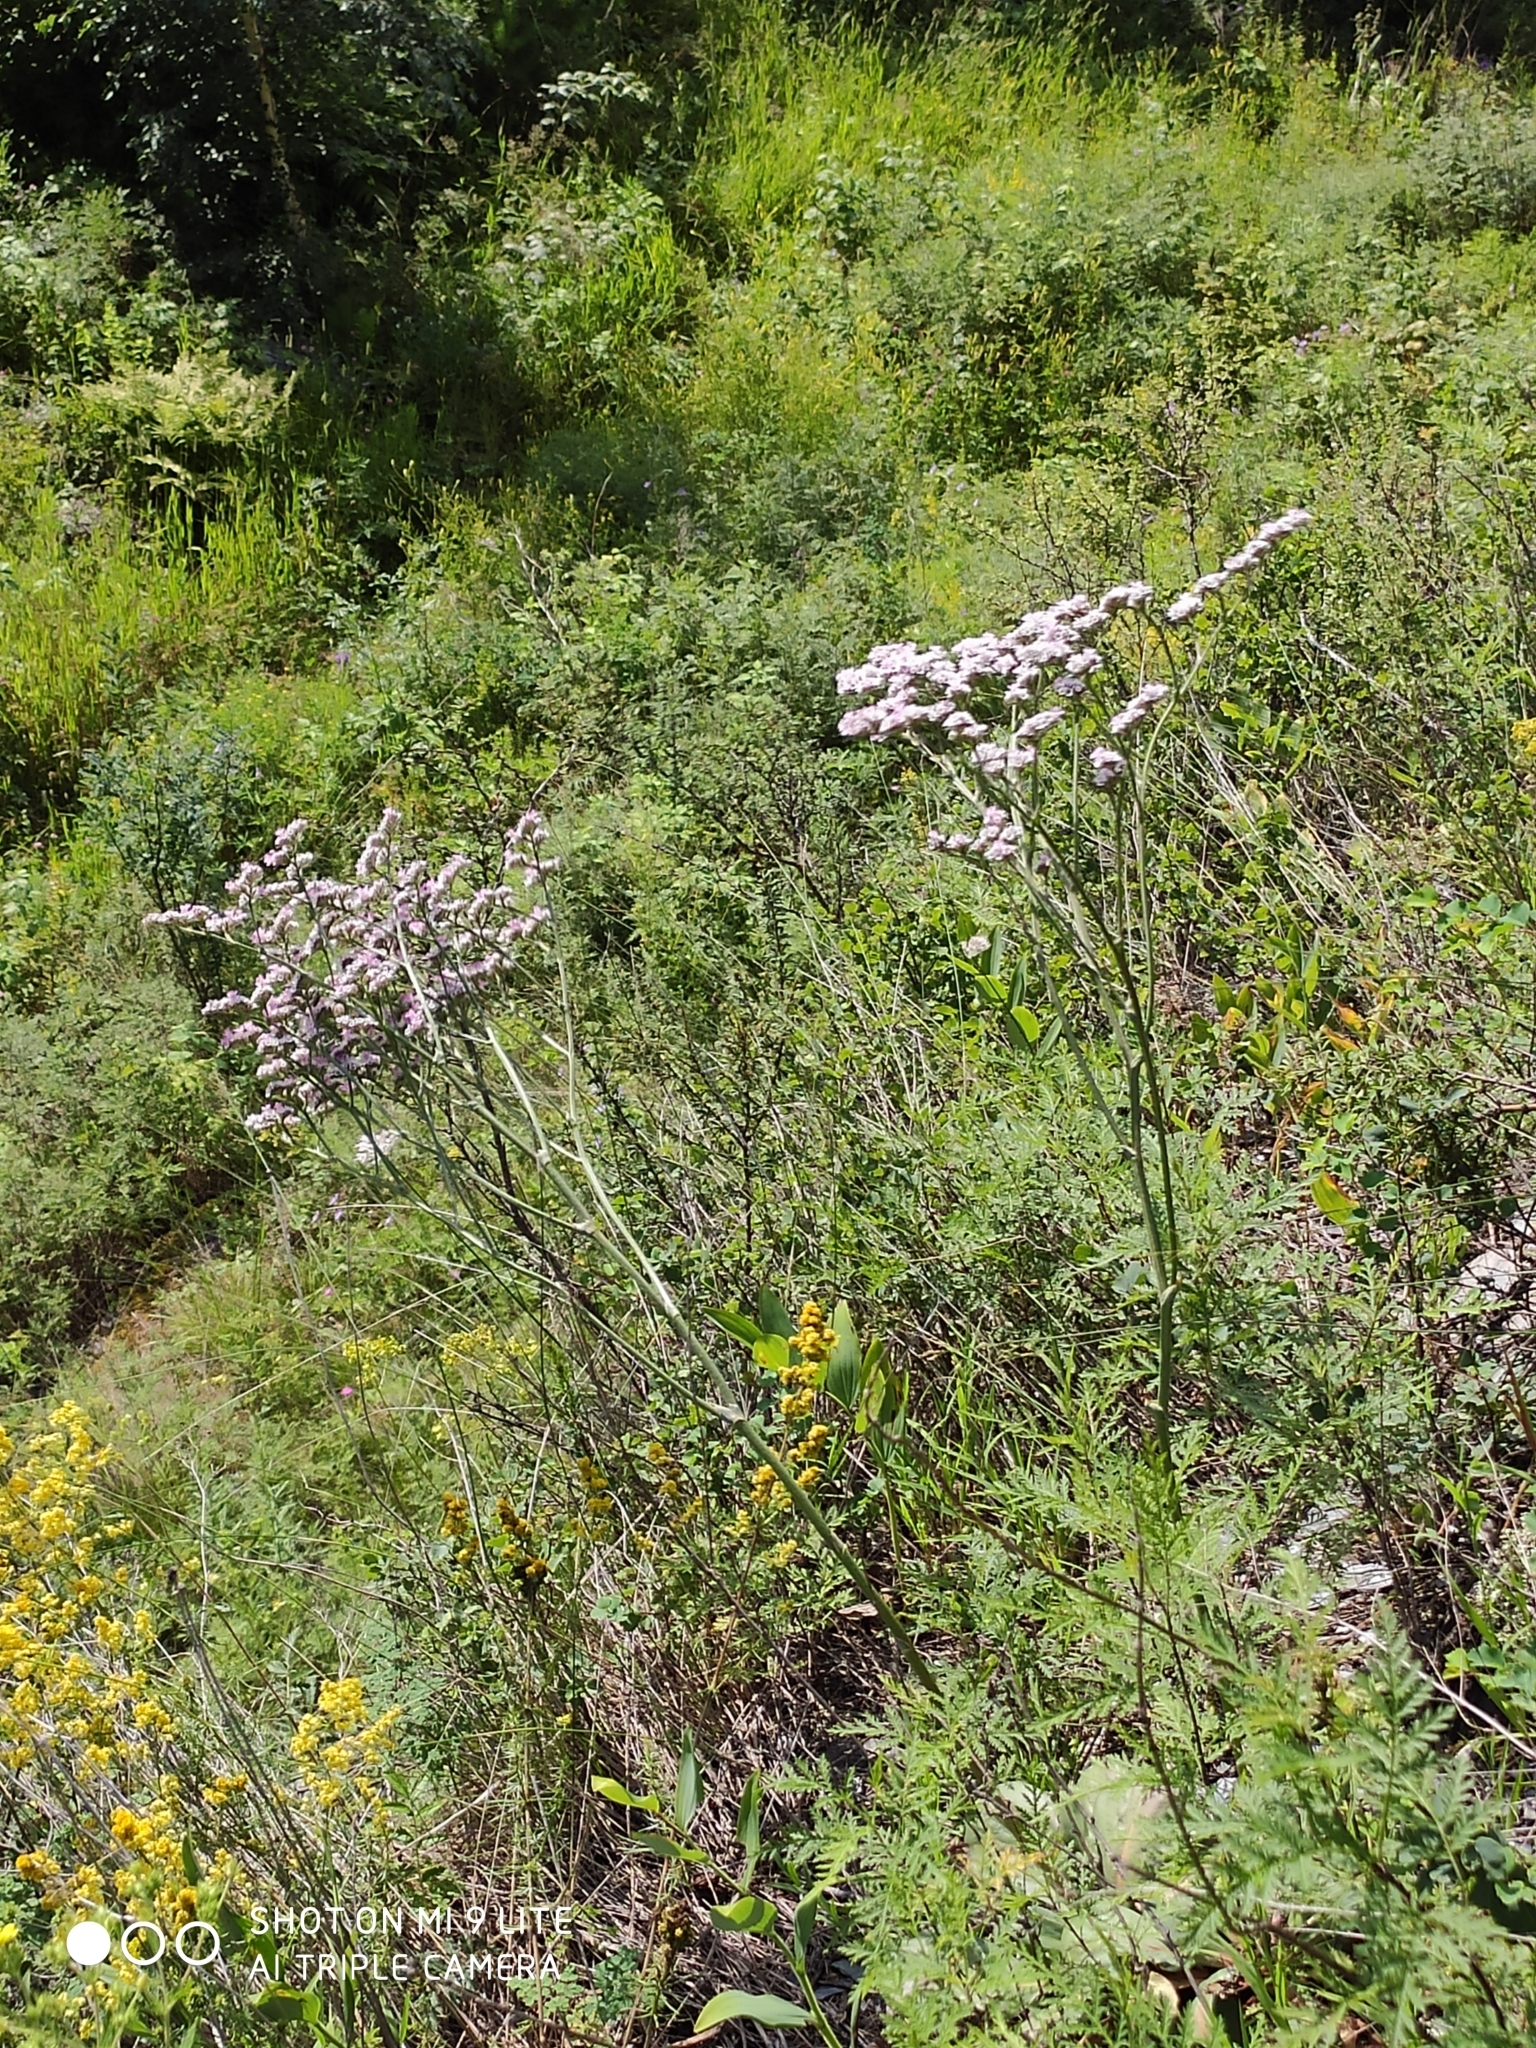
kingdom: Plantae
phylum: Tracheophyta
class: Magnoliopsida
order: Caryophyllales
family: Plumbaginaceae
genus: Goniolimon
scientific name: Goniolimon speciosum
